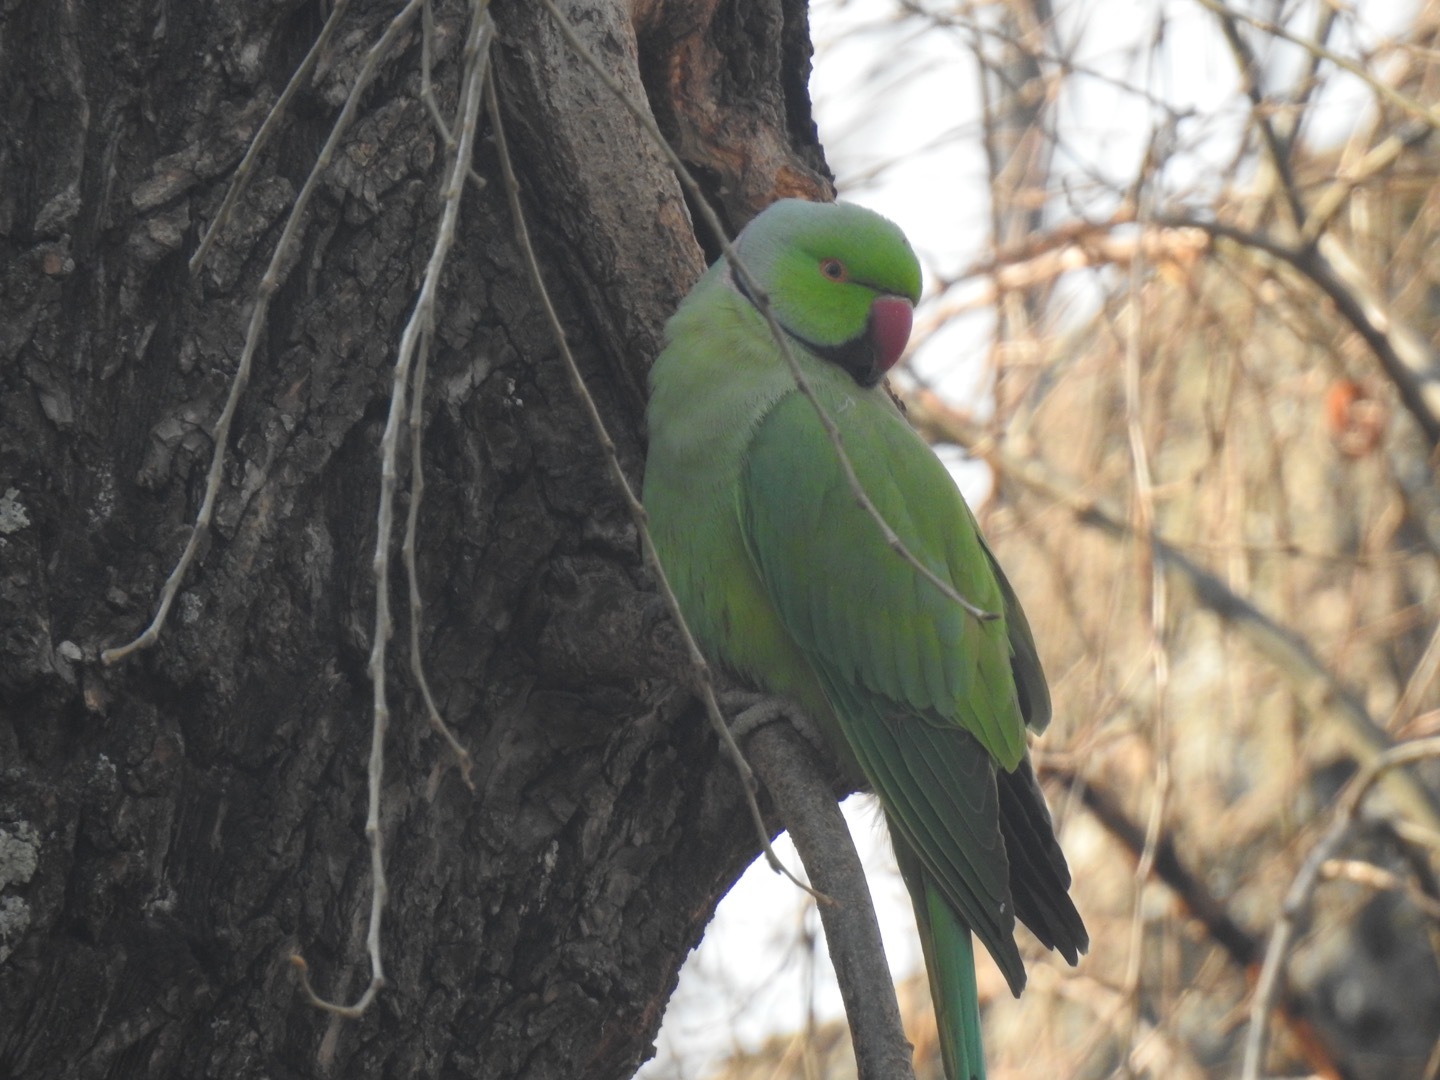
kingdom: Animalia
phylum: Chordata
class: Aves
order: Psittaciformes
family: Psittacidae
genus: Psittacula
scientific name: Psittacula krameri
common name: Rose-ringed parakeet
